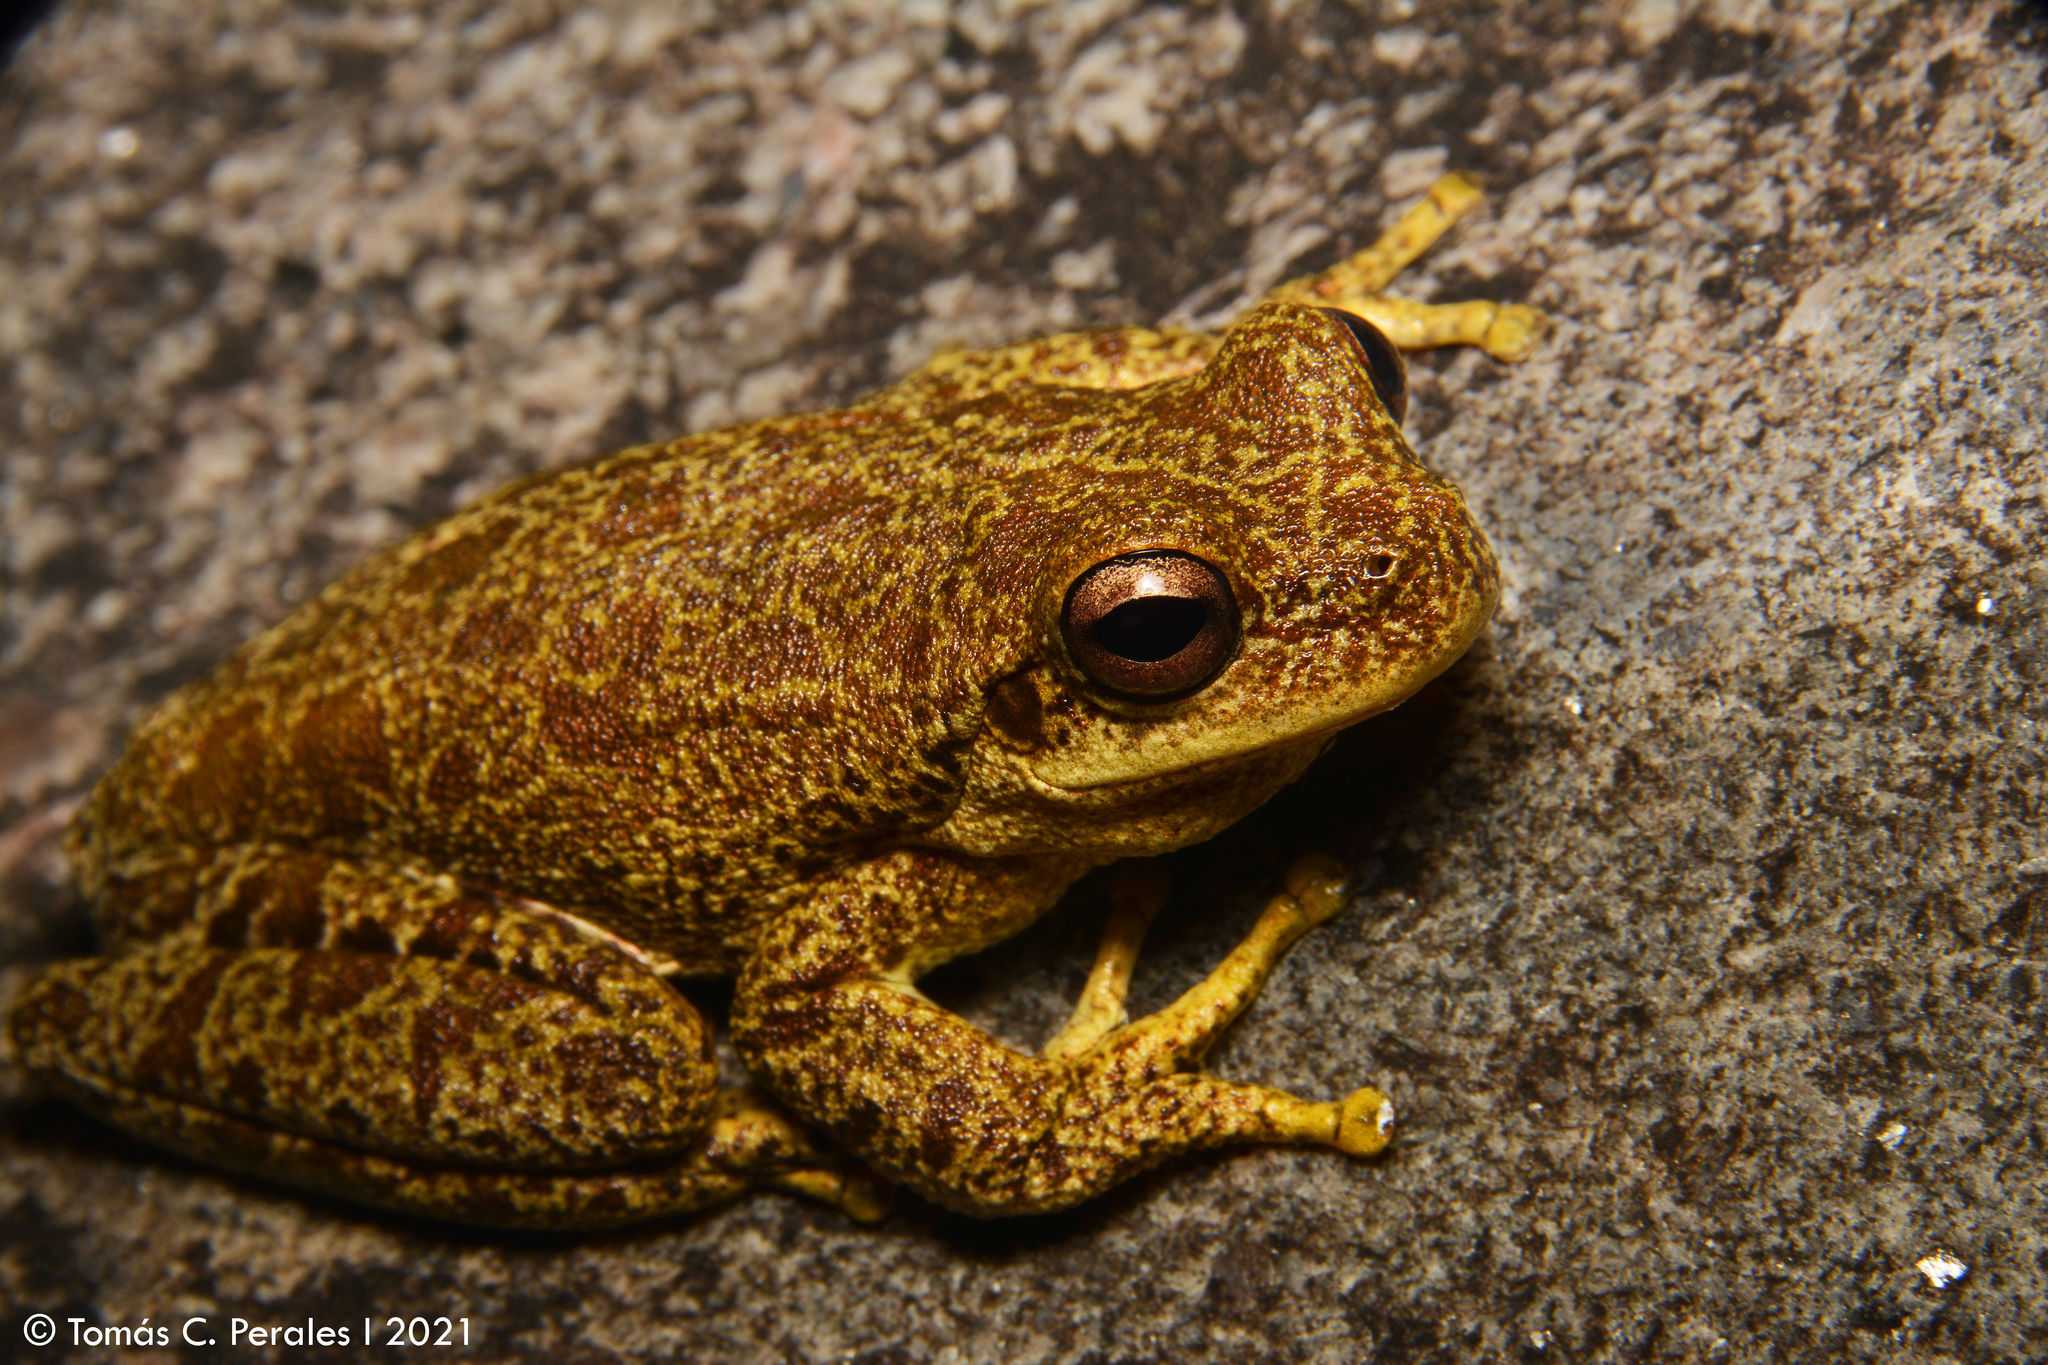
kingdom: Animalia
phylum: Chordata
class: Amphibia
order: Anura
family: Hylidae
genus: Boana
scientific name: Boana cordobae
